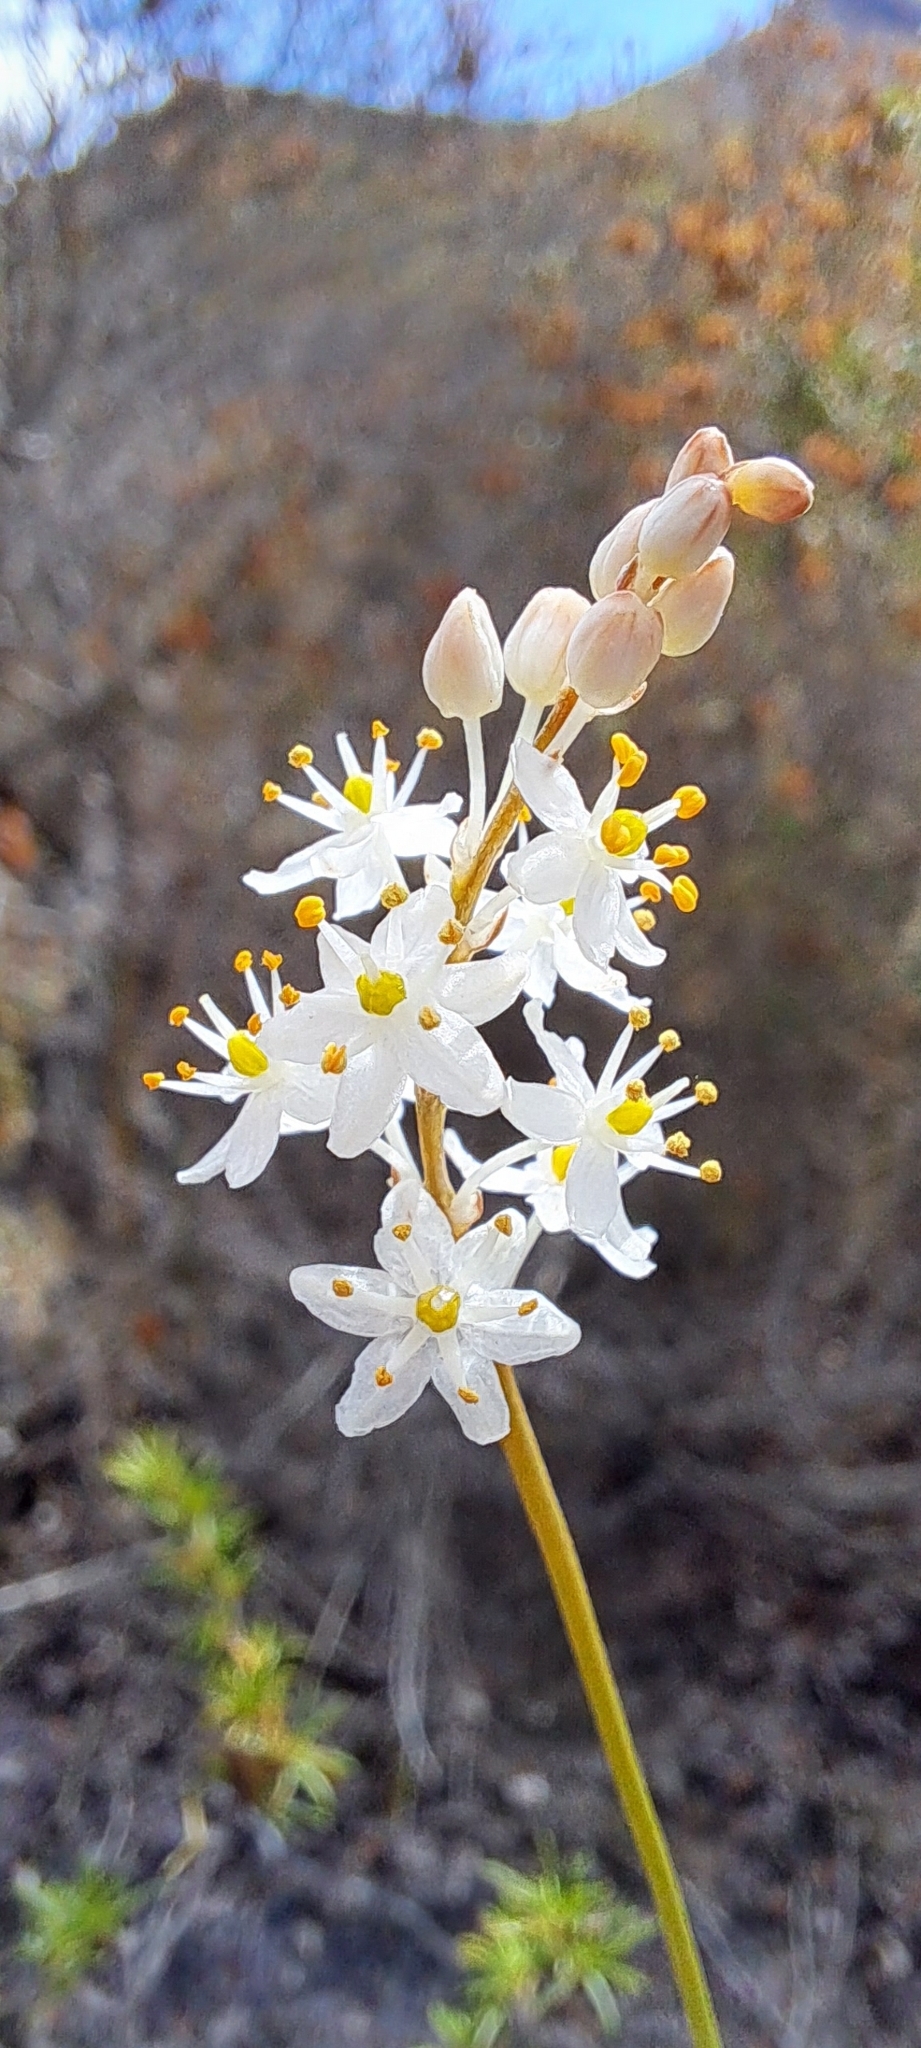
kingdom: Plantae
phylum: Tracheophyta
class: Liliopsida
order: Asparagales
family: Asphodelaceae
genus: Bulbinella
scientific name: Bulbinella trinervis
